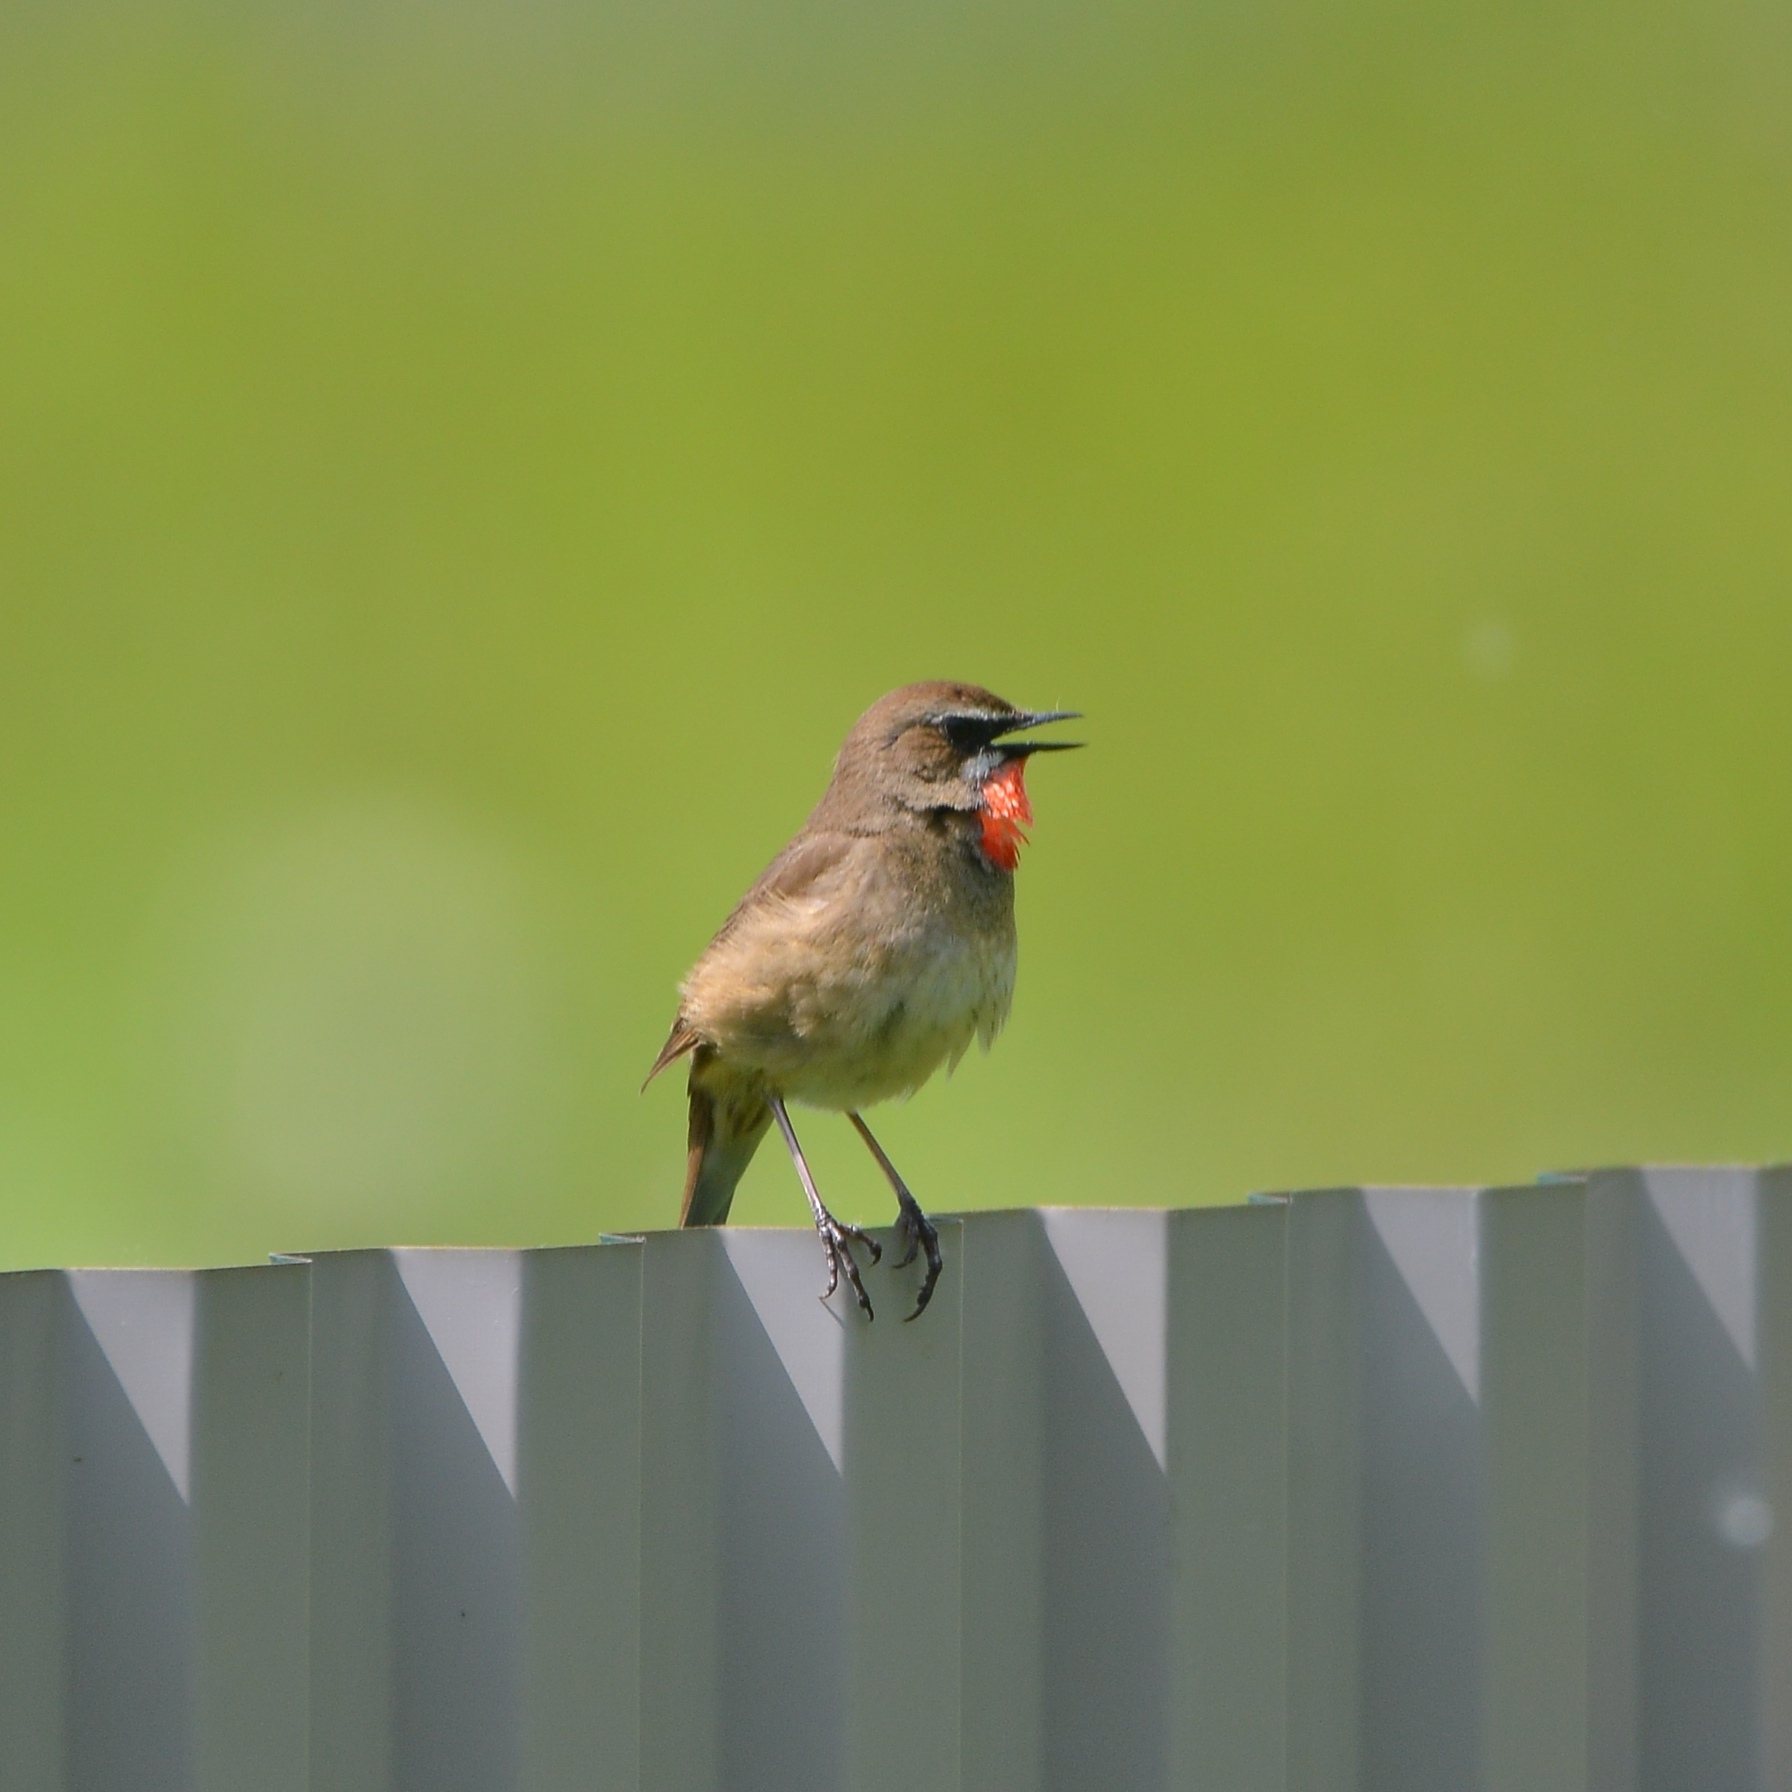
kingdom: Animalia
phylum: Chordata
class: Aves
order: Passeriformes
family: Muscicapidae
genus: Luscinia
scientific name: Luscinia calliope
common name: Siberian rubythroat
